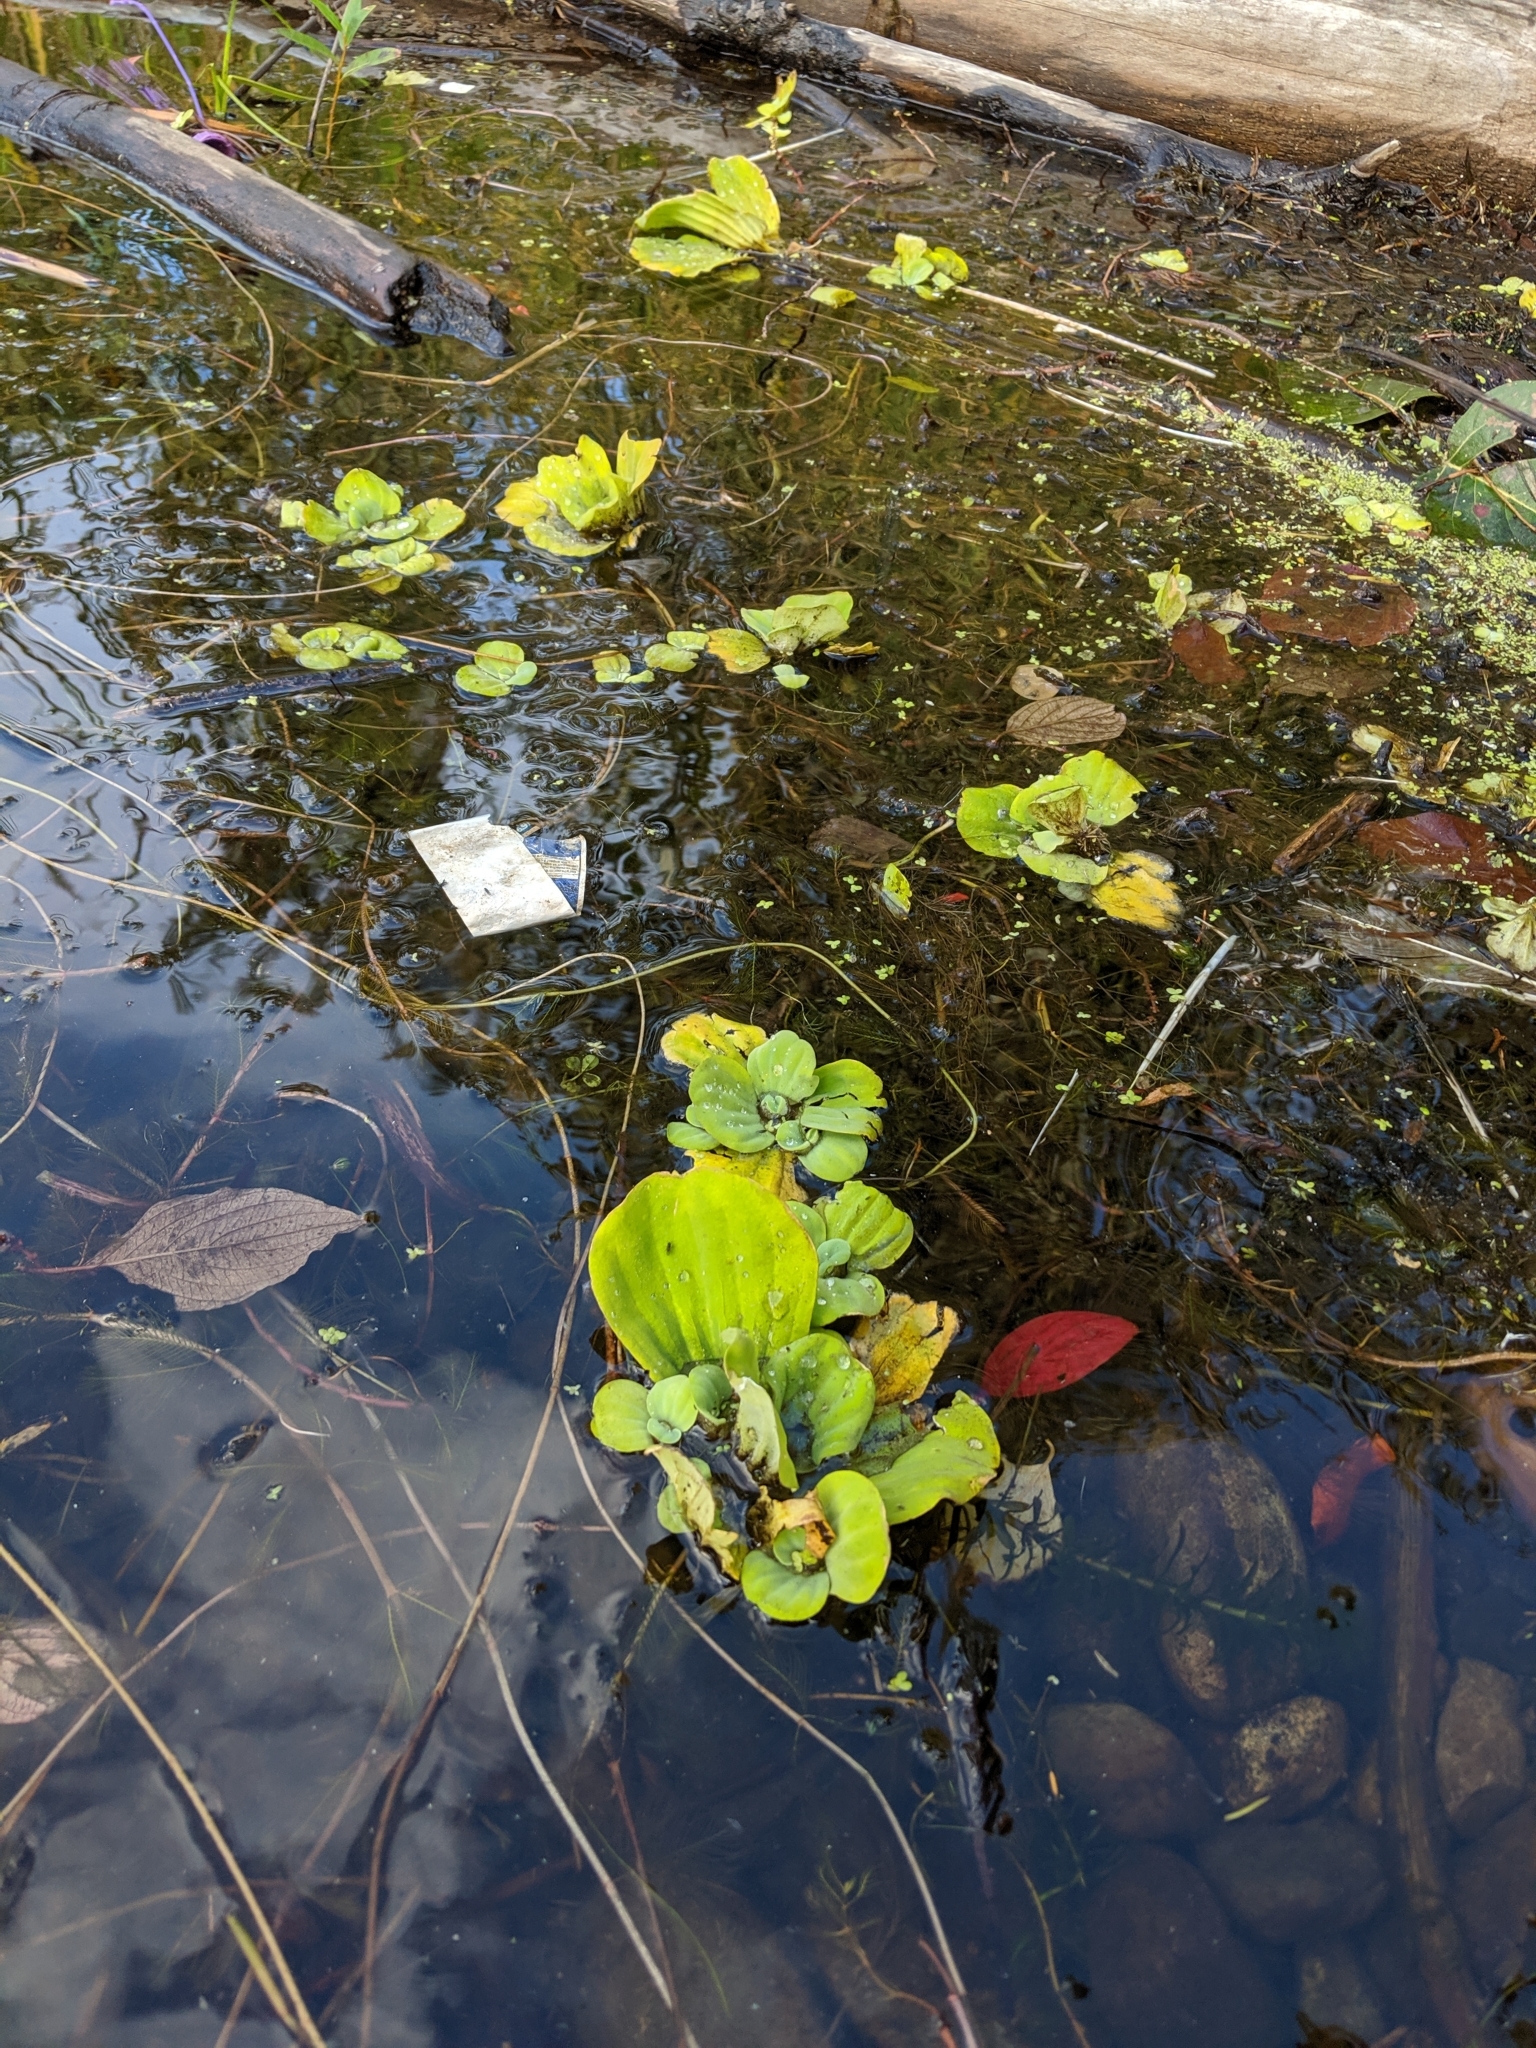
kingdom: Plantae
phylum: Tracheophyta
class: Liliopsida
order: Alismatales
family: Araceae
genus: Pistia
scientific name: Pistia stratiotes
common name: Water lettuce
